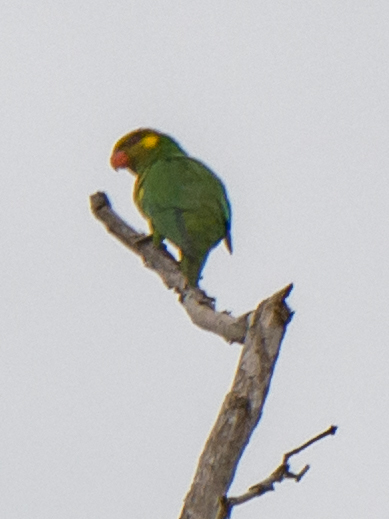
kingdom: Animalia
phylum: Chordata
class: Aves
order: Psittaciformes
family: Psittaculidae
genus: Saudareos
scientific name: Saudareos meyeri
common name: Yellow-cheeked lorikeet
